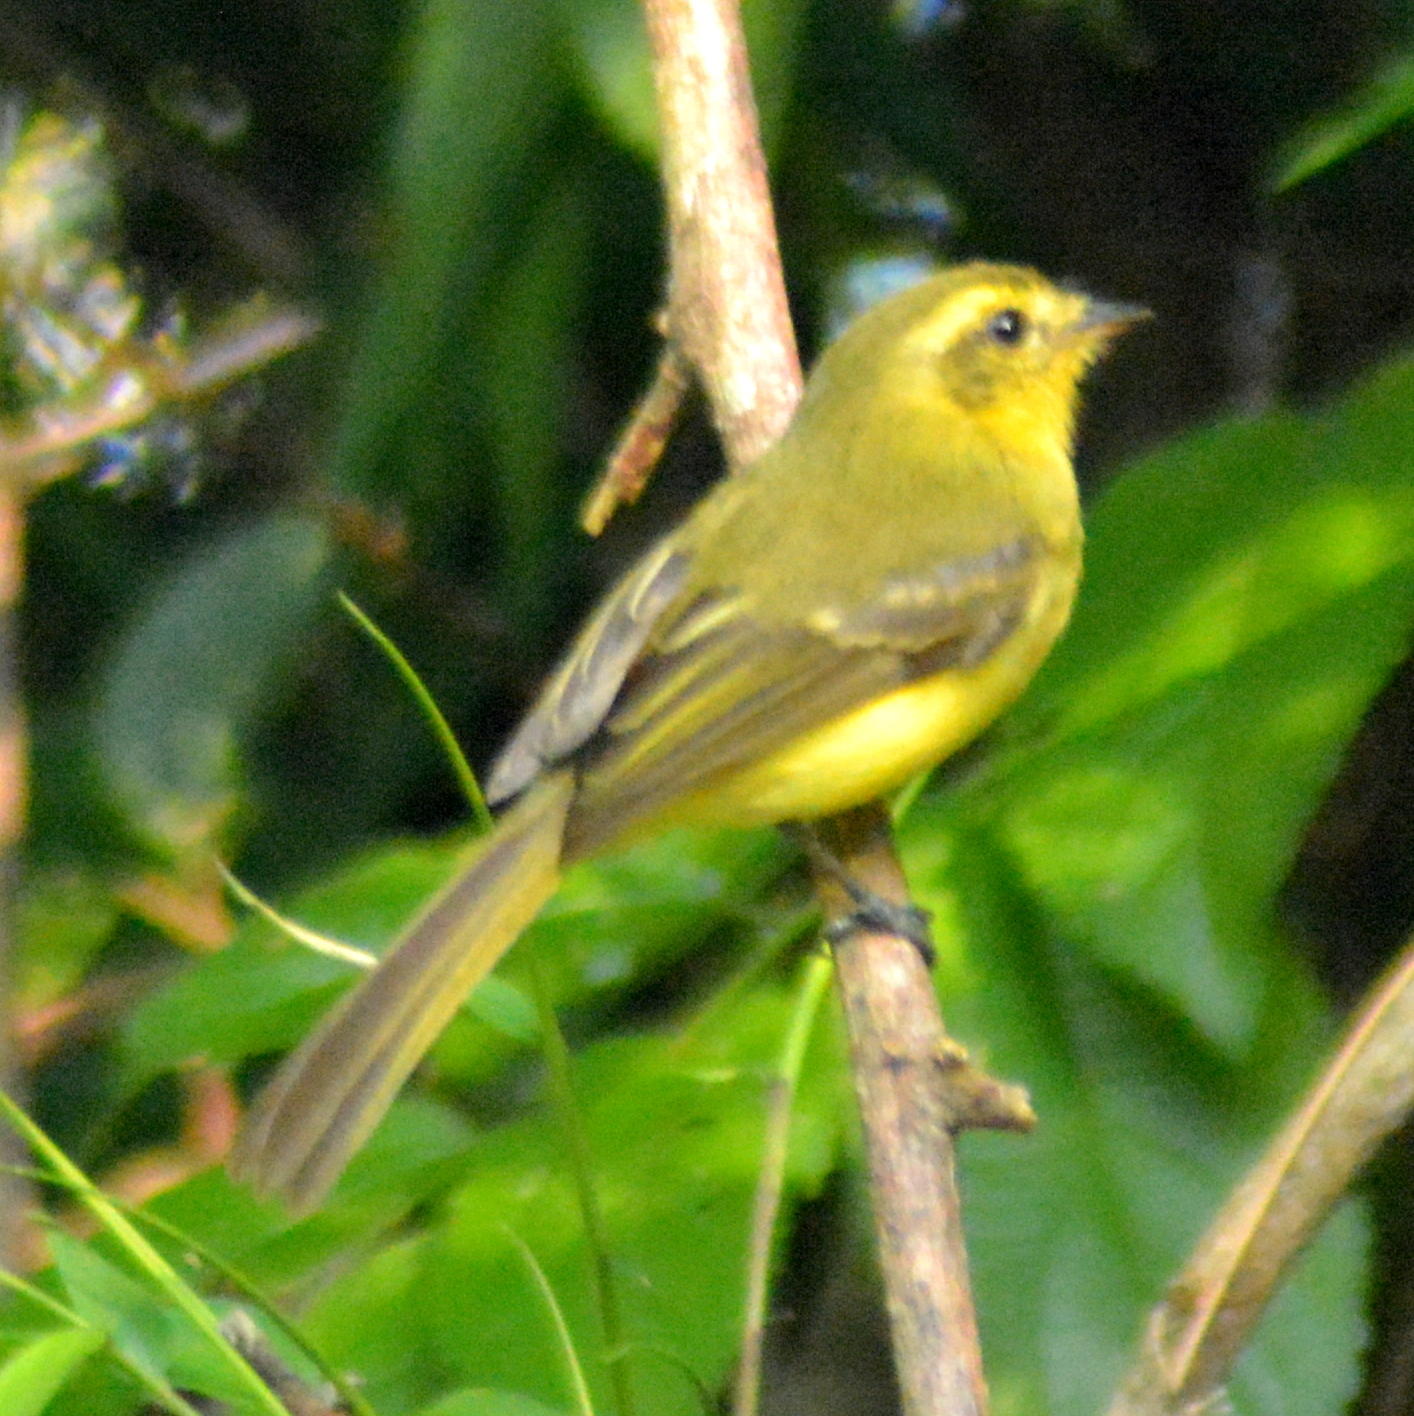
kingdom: Animalia
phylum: Chordata
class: Aves
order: Passeriformes
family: Tyrannidae
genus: Capsiempis
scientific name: Capsiempis flaveola
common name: Yellow tyrannulet
